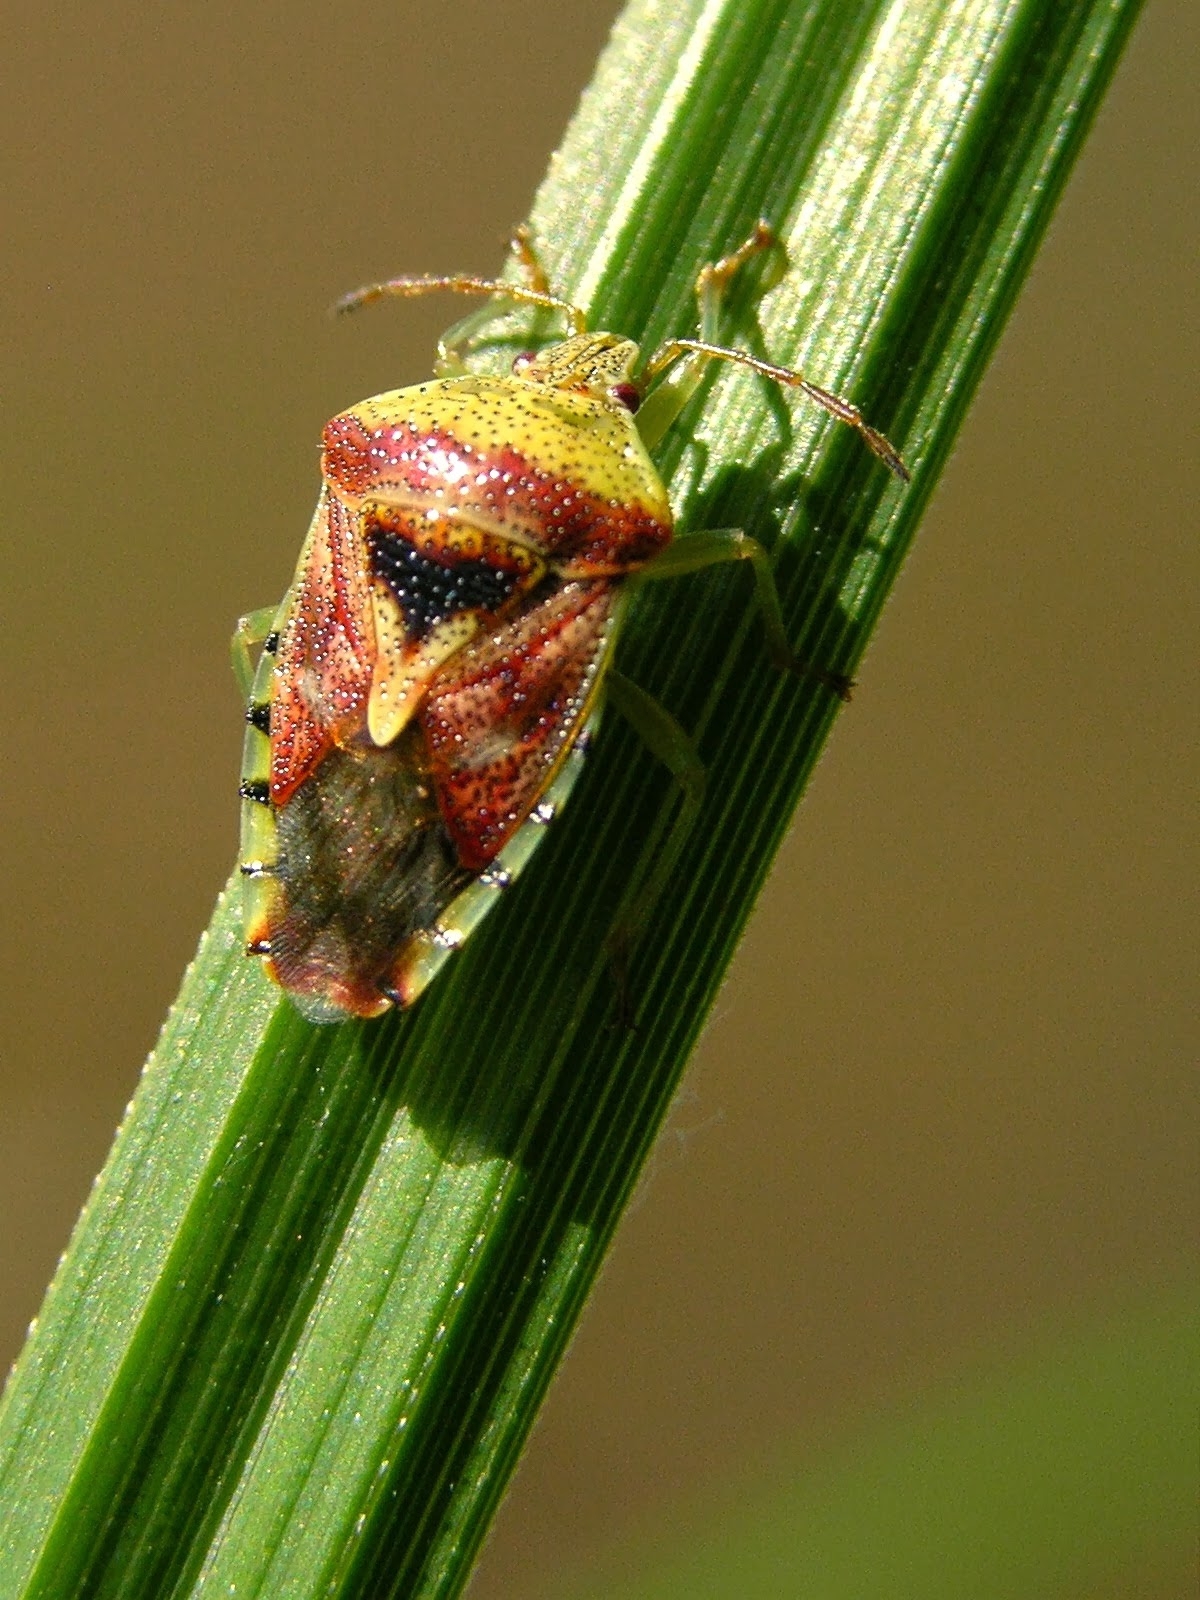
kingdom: Animalia
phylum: Arthropoda
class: Insecta
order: Hemiptera
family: Acanthosomatidae
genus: Elasmucha
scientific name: Elasmucha grisea
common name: Parent bug
